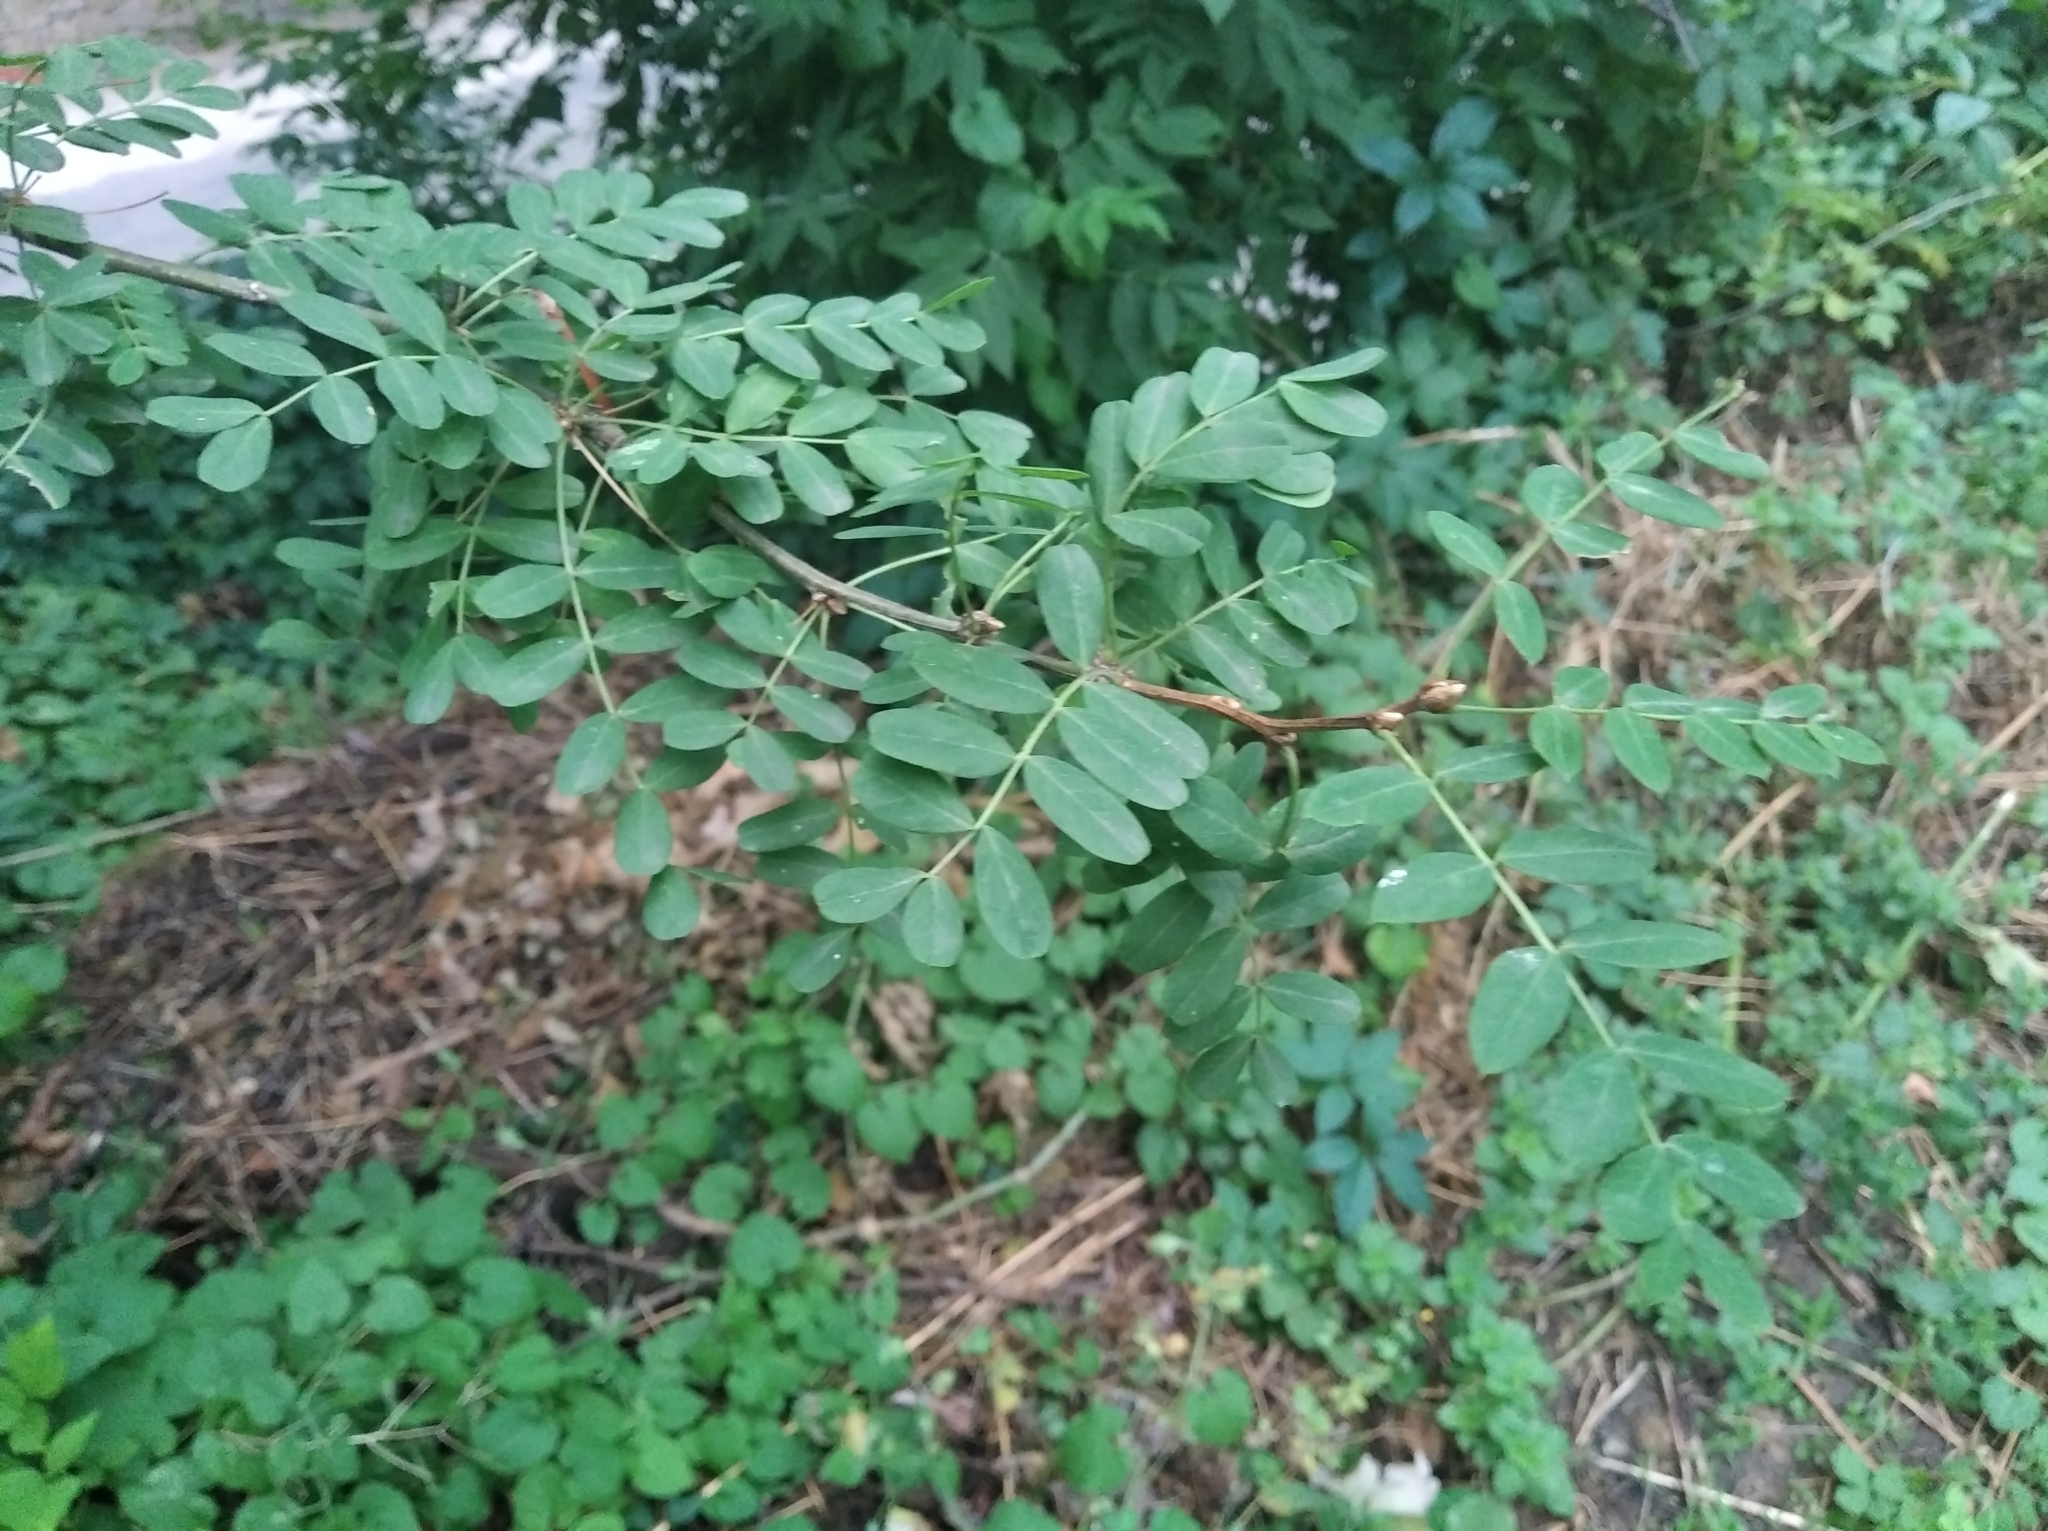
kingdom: Plantae
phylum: Tracheophyta
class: Magnoliopsida
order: Fabales
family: Fabaceae
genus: Caragana
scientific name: Caragana arborescens
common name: Siberian peashrub
